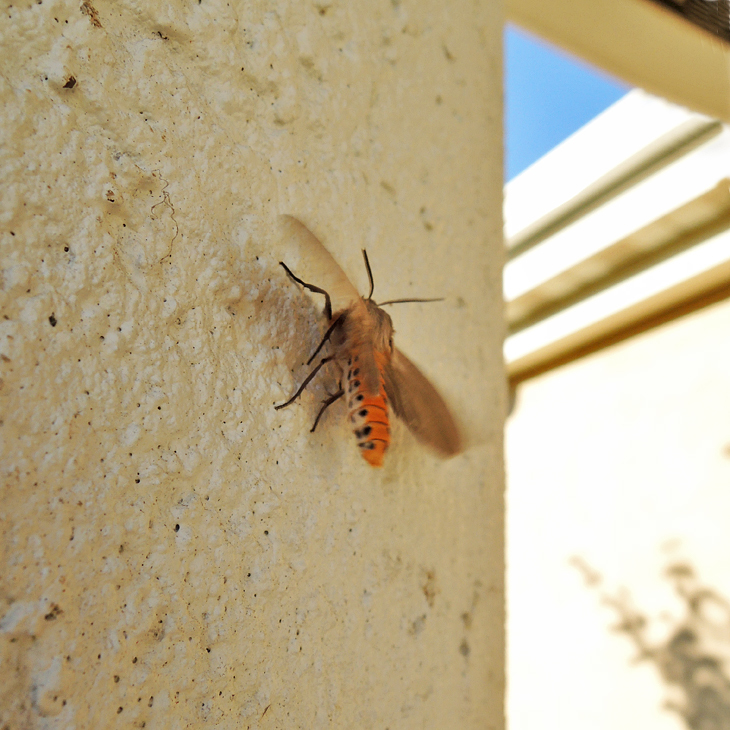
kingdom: Animalia
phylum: Arthropoda
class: Insecta
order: Lepidoptera
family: Erebidae
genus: Euchaetes
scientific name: Euchaetes egle
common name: Milkweed tussock moth
